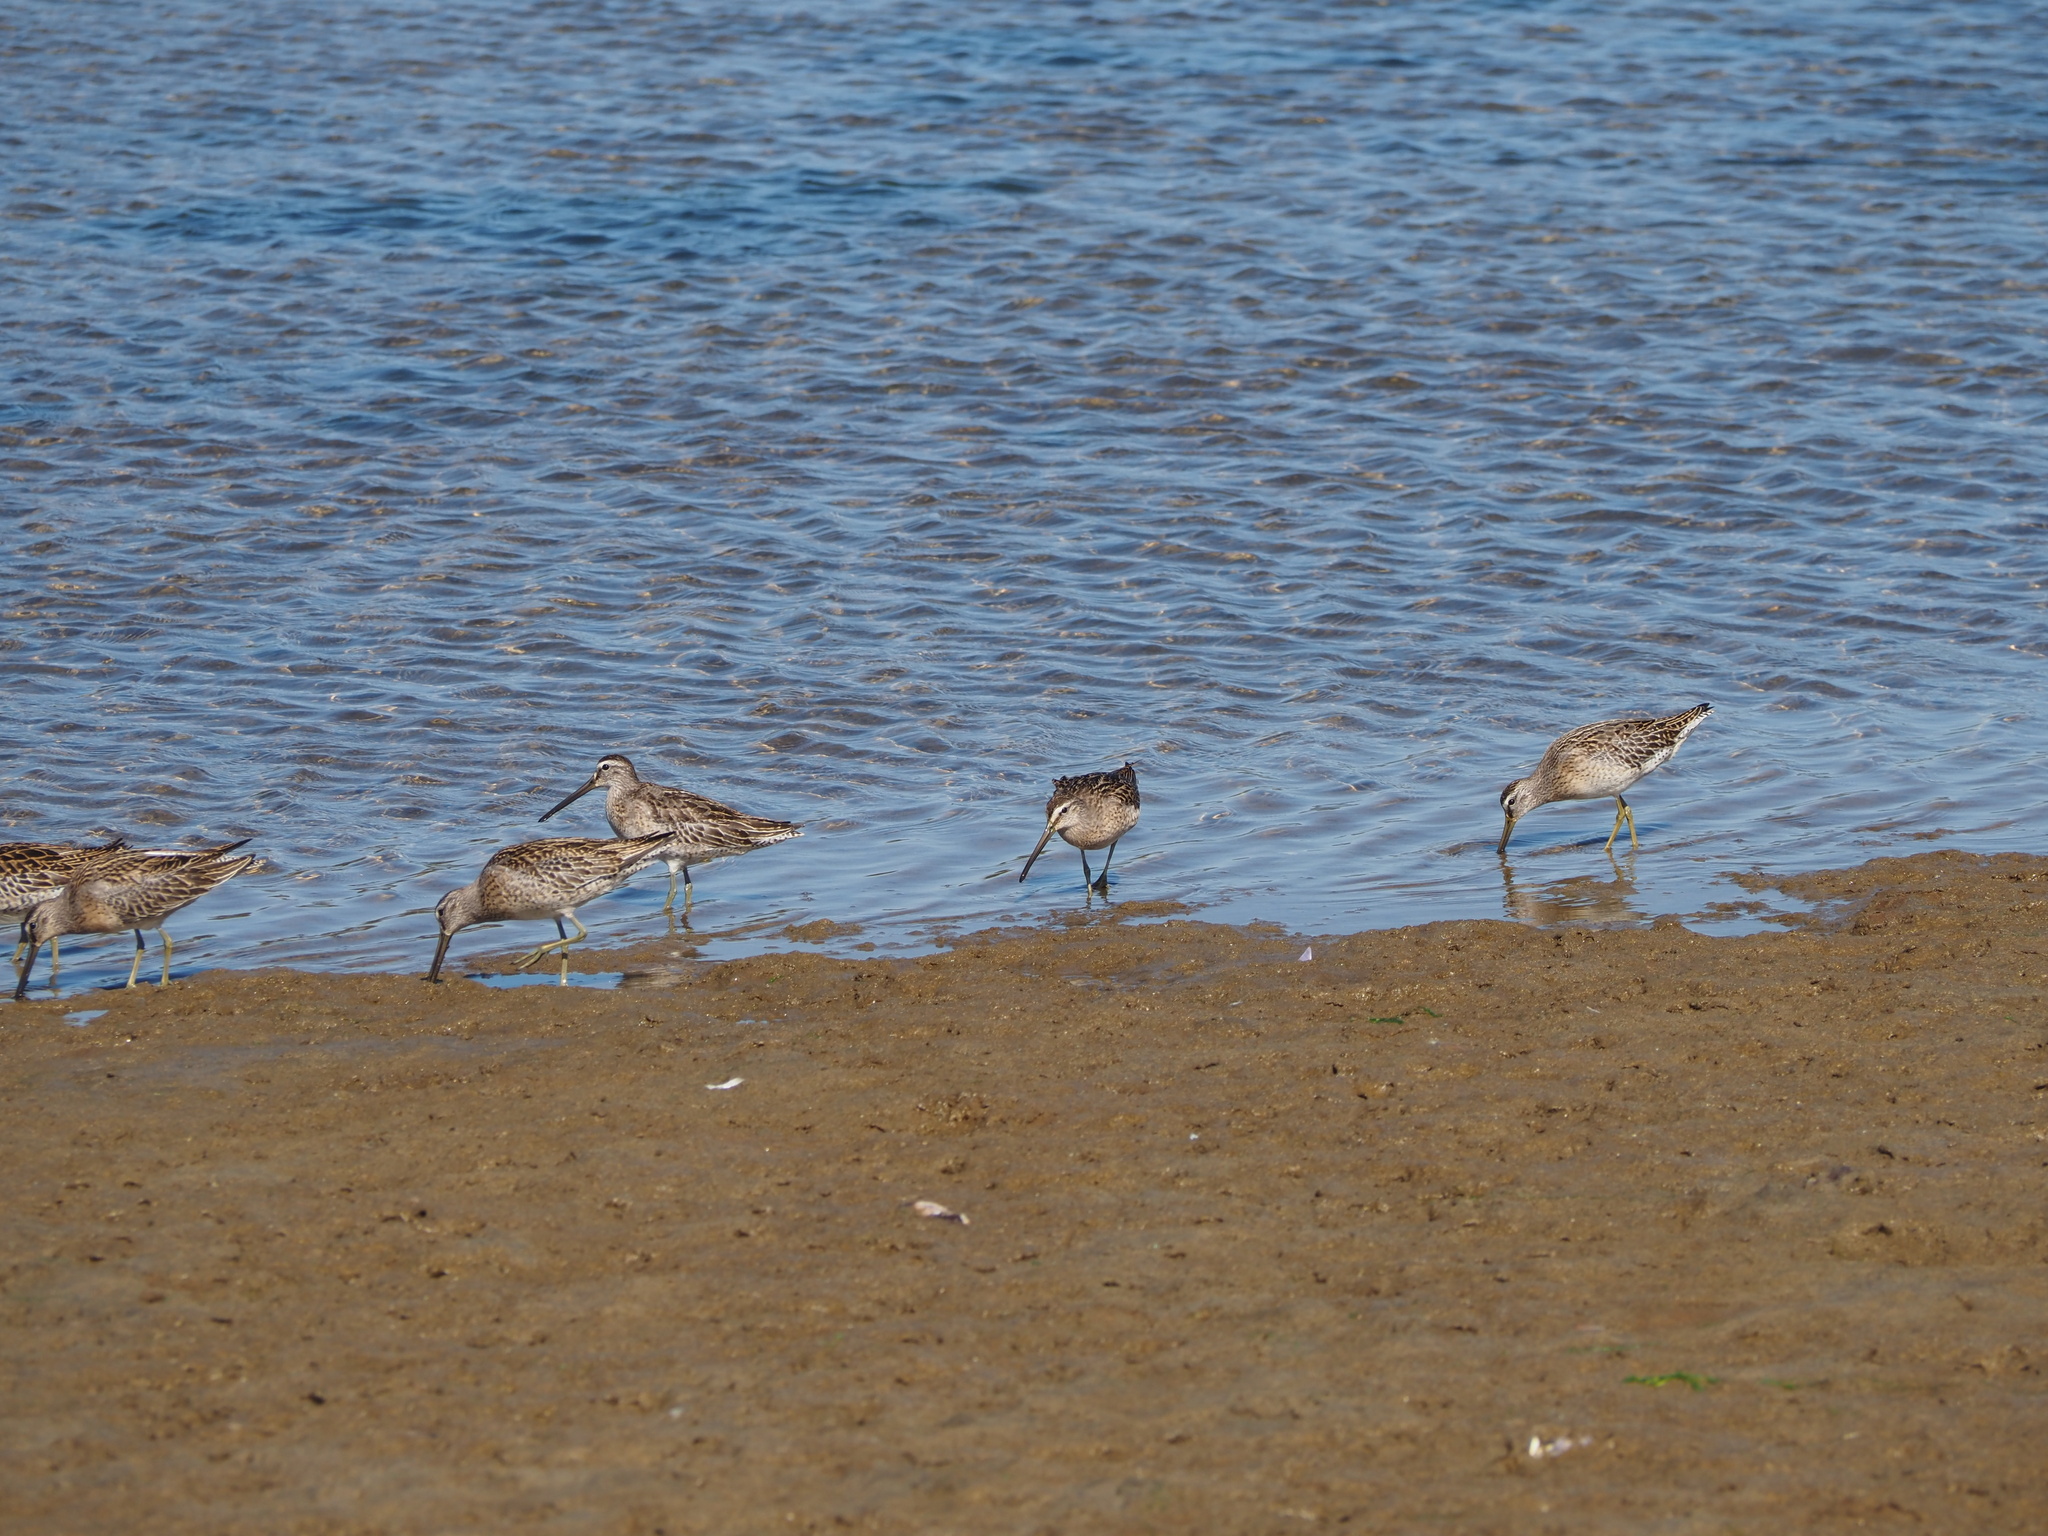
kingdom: Animalia
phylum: Chordata
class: Aves
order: Charadriiformes
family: Scolopacidae
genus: Limnodromus
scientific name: Limnodromus griseus
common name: Short-billed dowitcher
